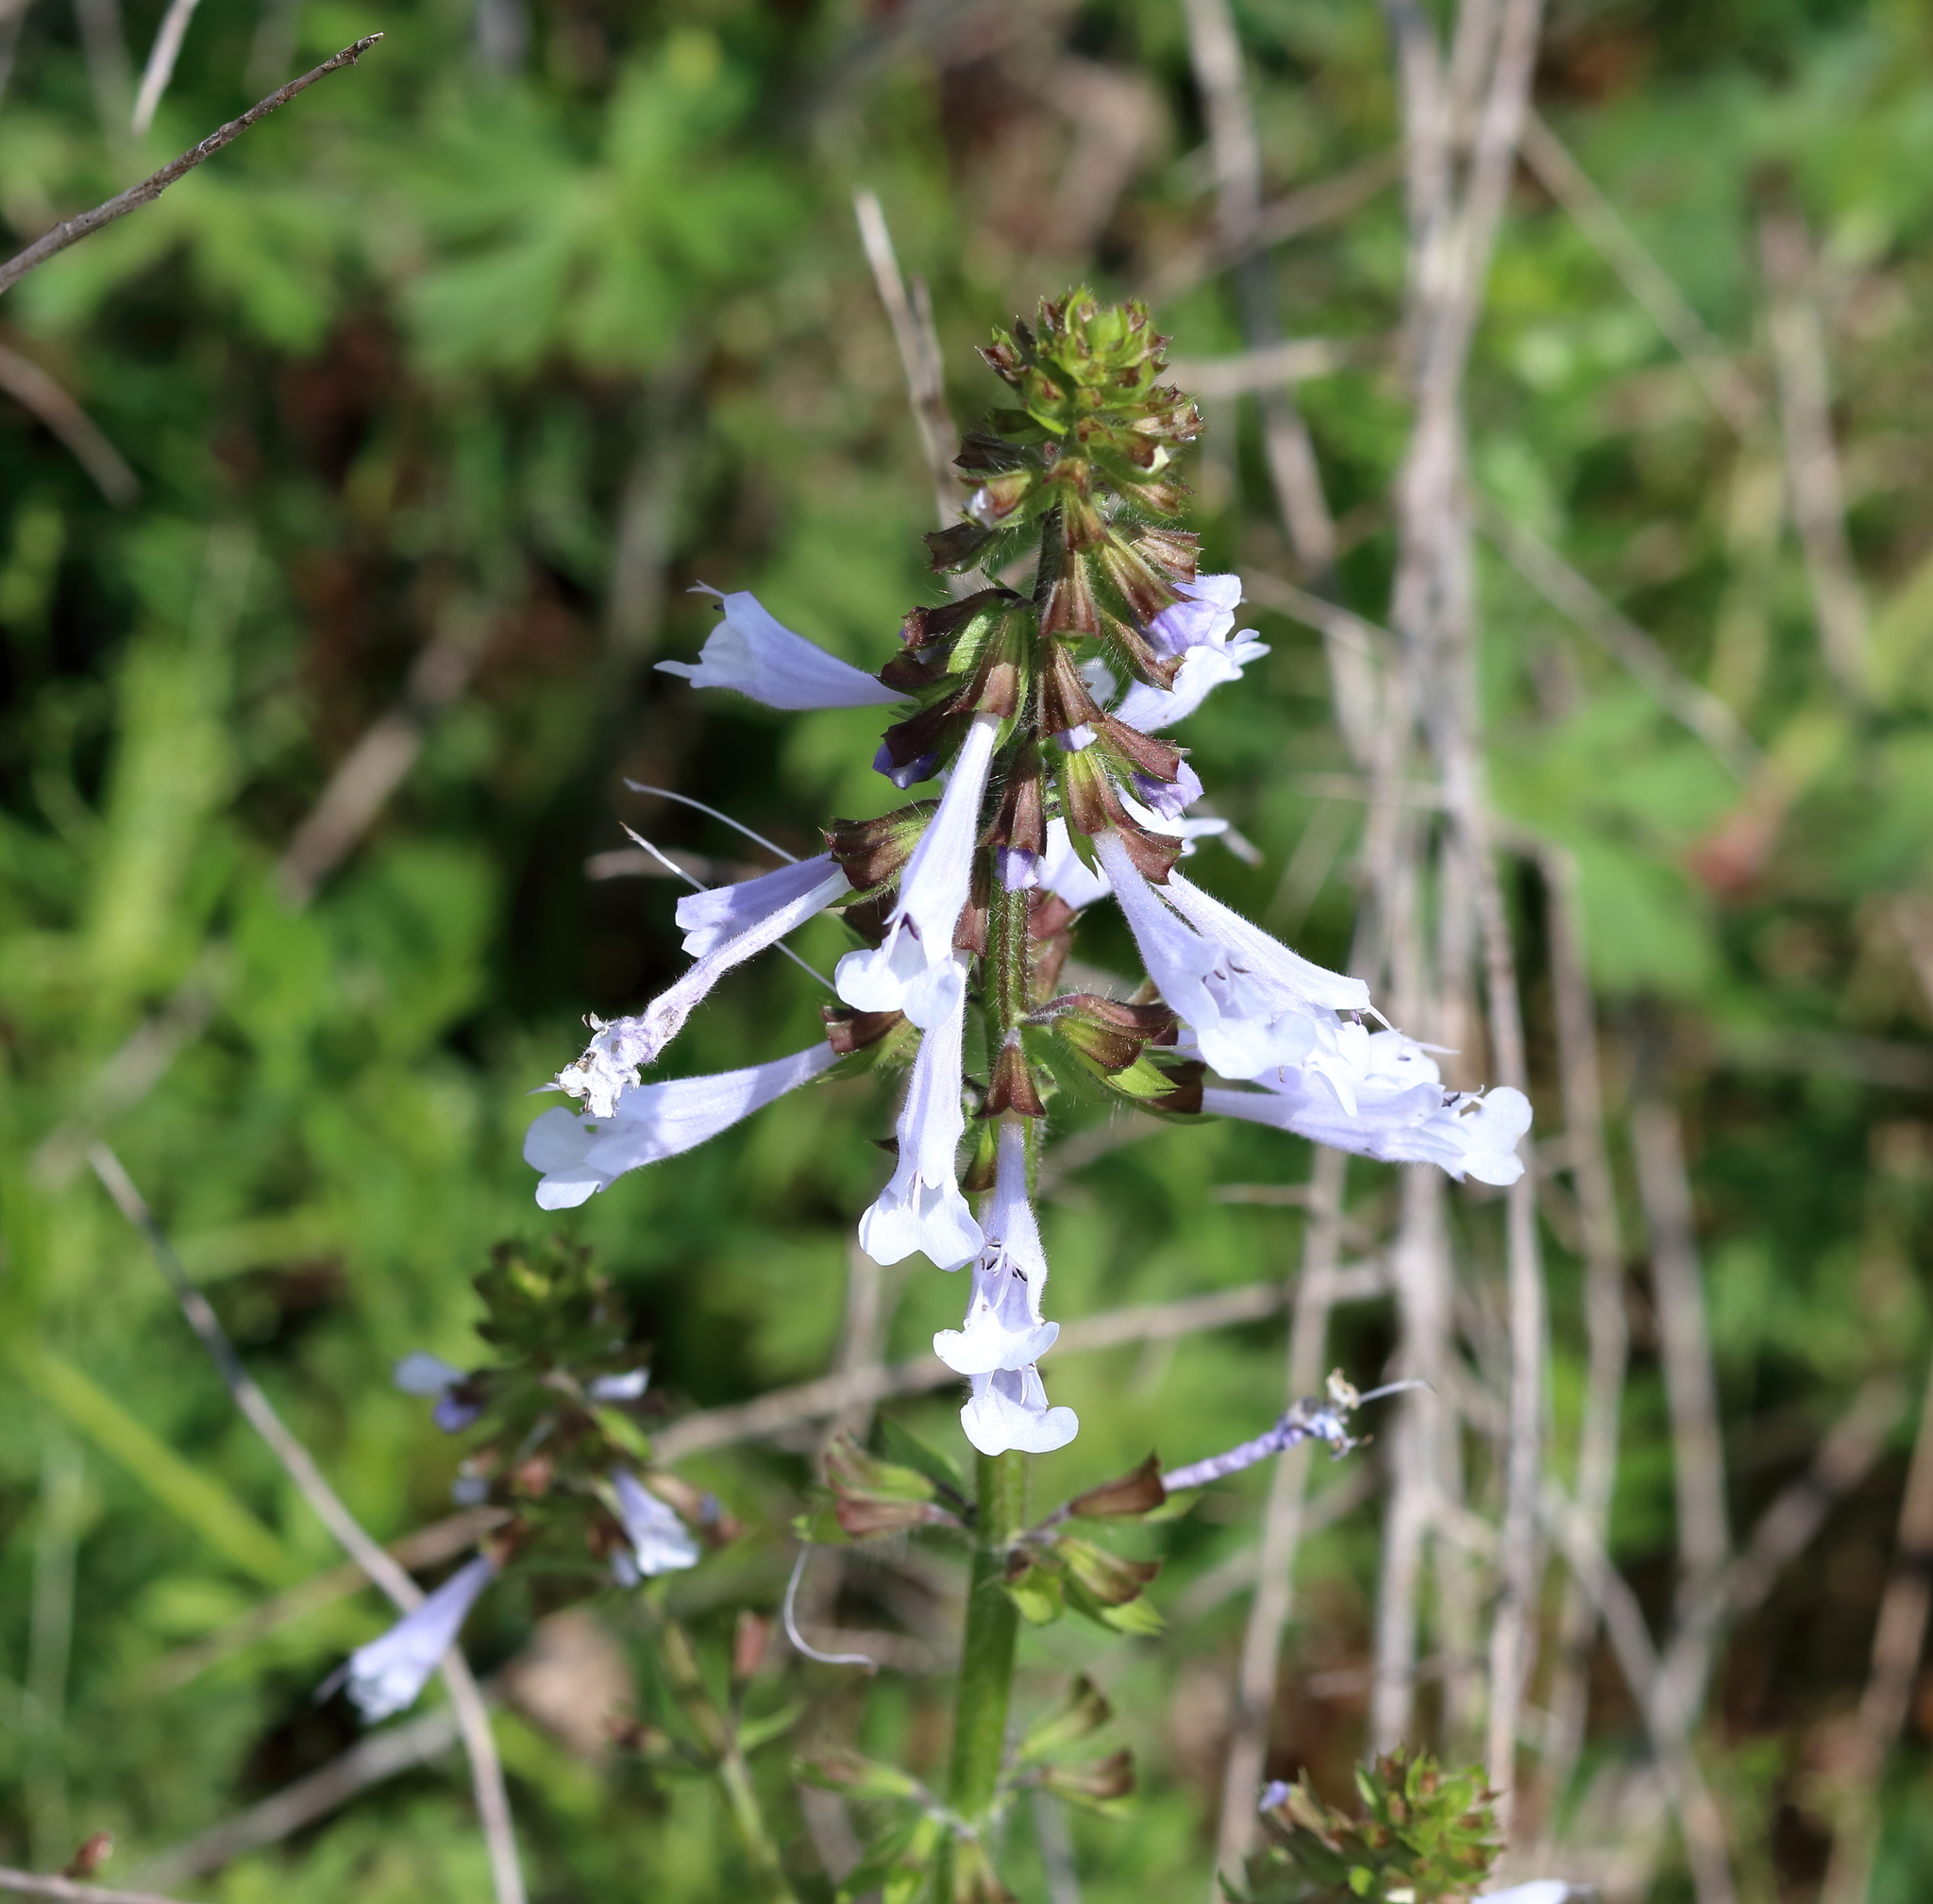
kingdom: Plantae
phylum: Tracheophyta
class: Magnoliopsida
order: Lamiales
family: Lamiaceae
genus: Salvia
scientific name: Salvia lyrata
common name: Cancerweed
